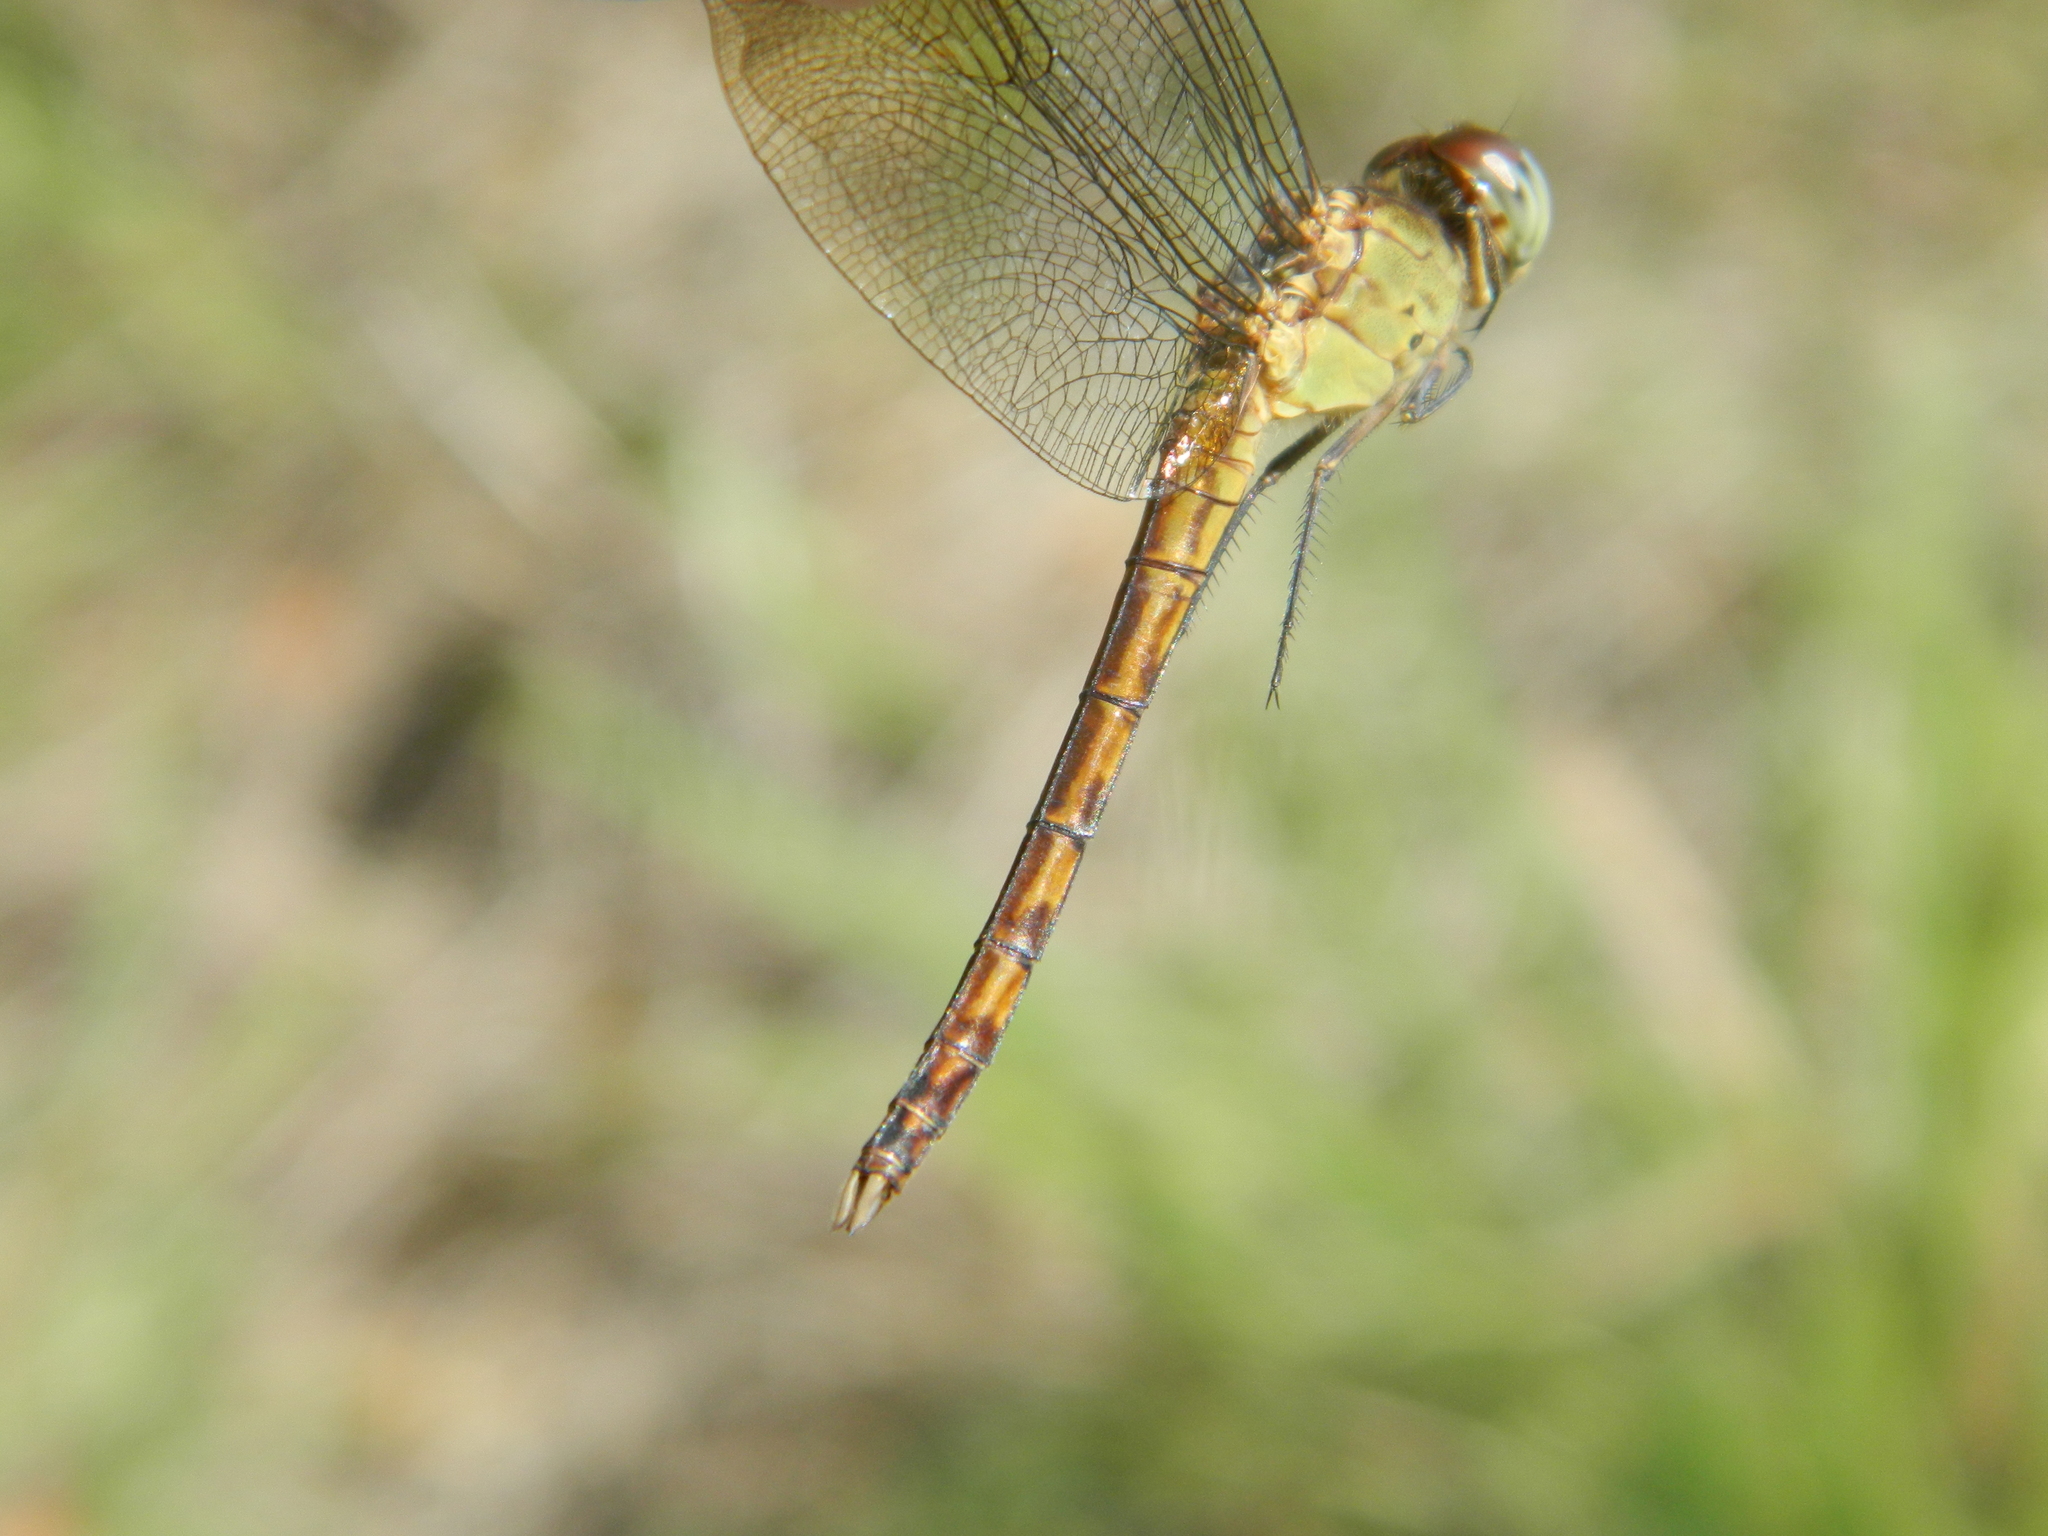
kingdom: Animalia
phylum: Arthropoda
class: Insecta
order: Odonata
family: Libellulidae
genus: Erythrodiplax
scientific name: Erythrodiplax umbrata
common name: Band-winged dragonlet
